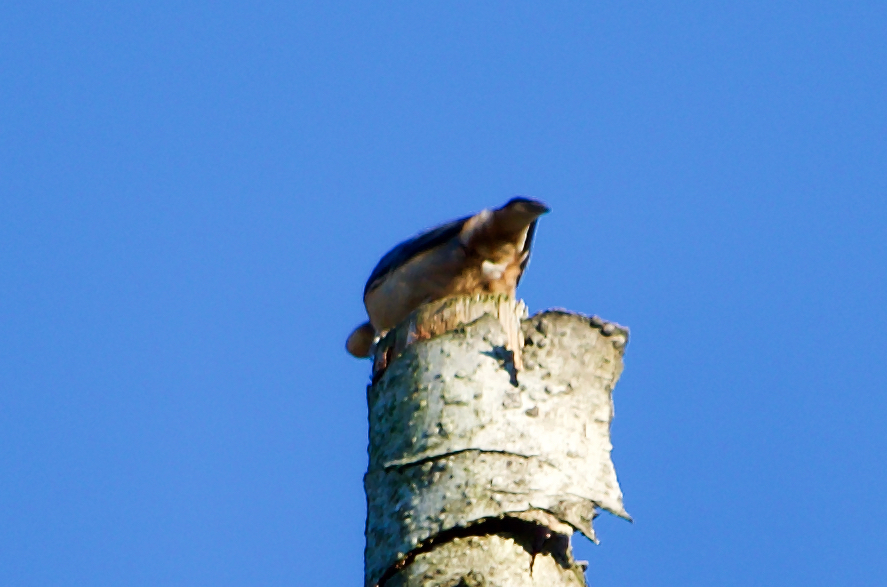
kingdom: Animalia
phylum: Chordata
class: Aves
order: Passeriformes
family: Sittidae
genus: Sitta
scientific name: Sitta europaea
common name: Eurasian nuthatch
